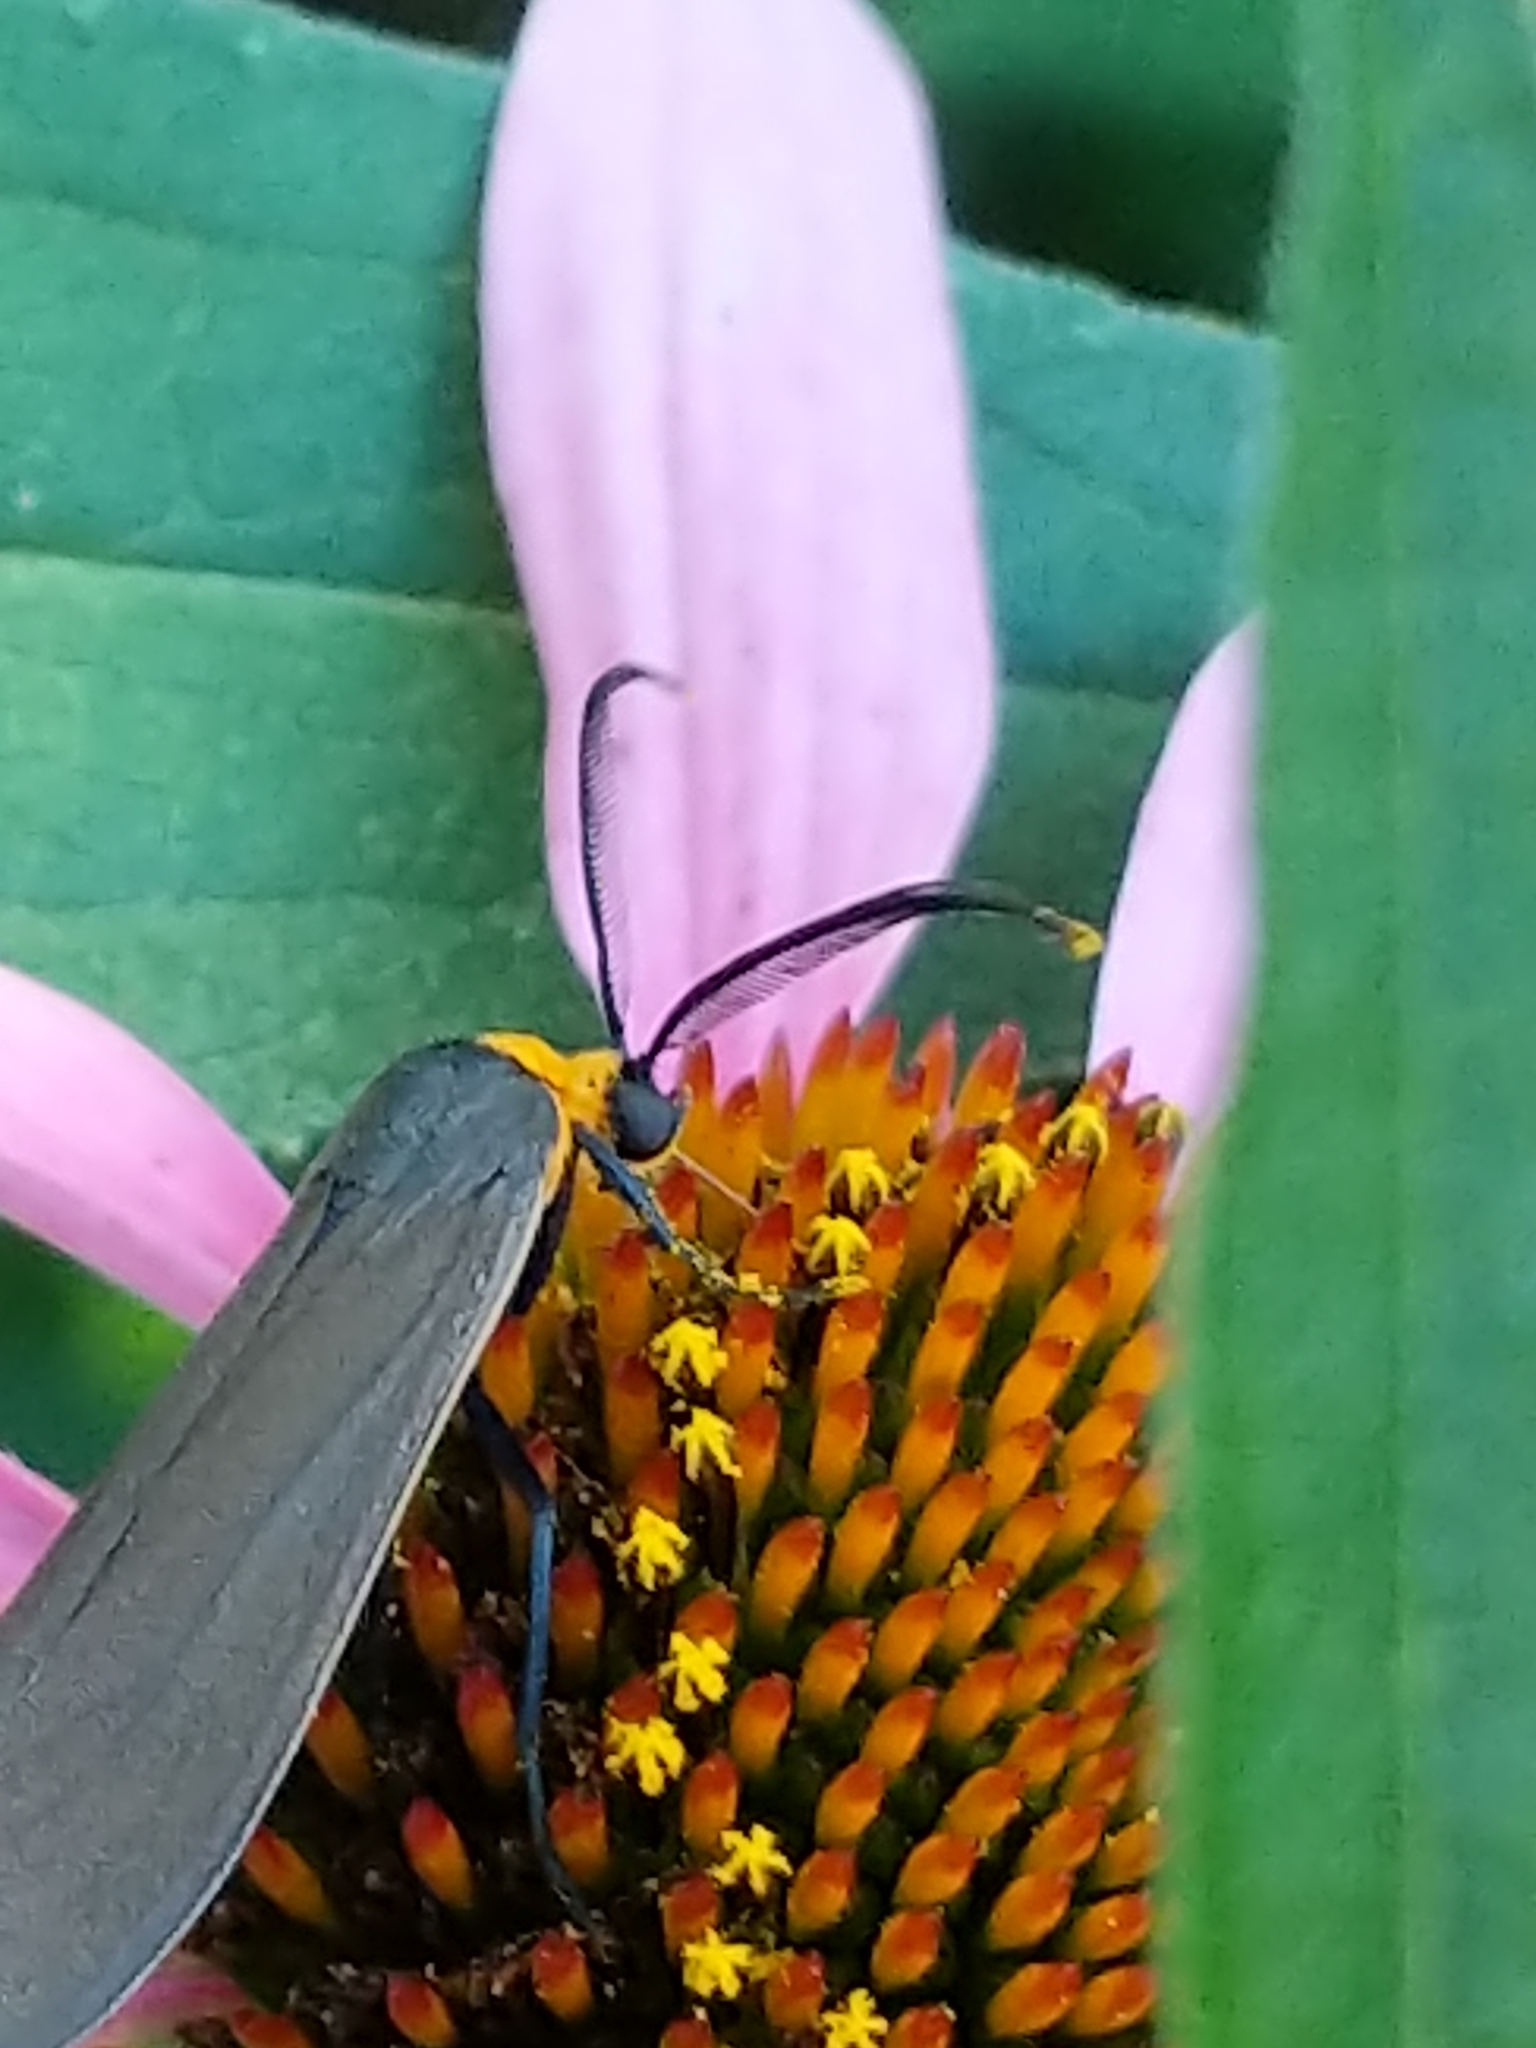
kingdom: Animalia
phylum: Arthropoda
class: Insecta
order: Lepidoptera
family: Erebidae
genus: Cisseps
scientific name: Cisseps fulvicollis
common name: Yellow-collared scape moth
